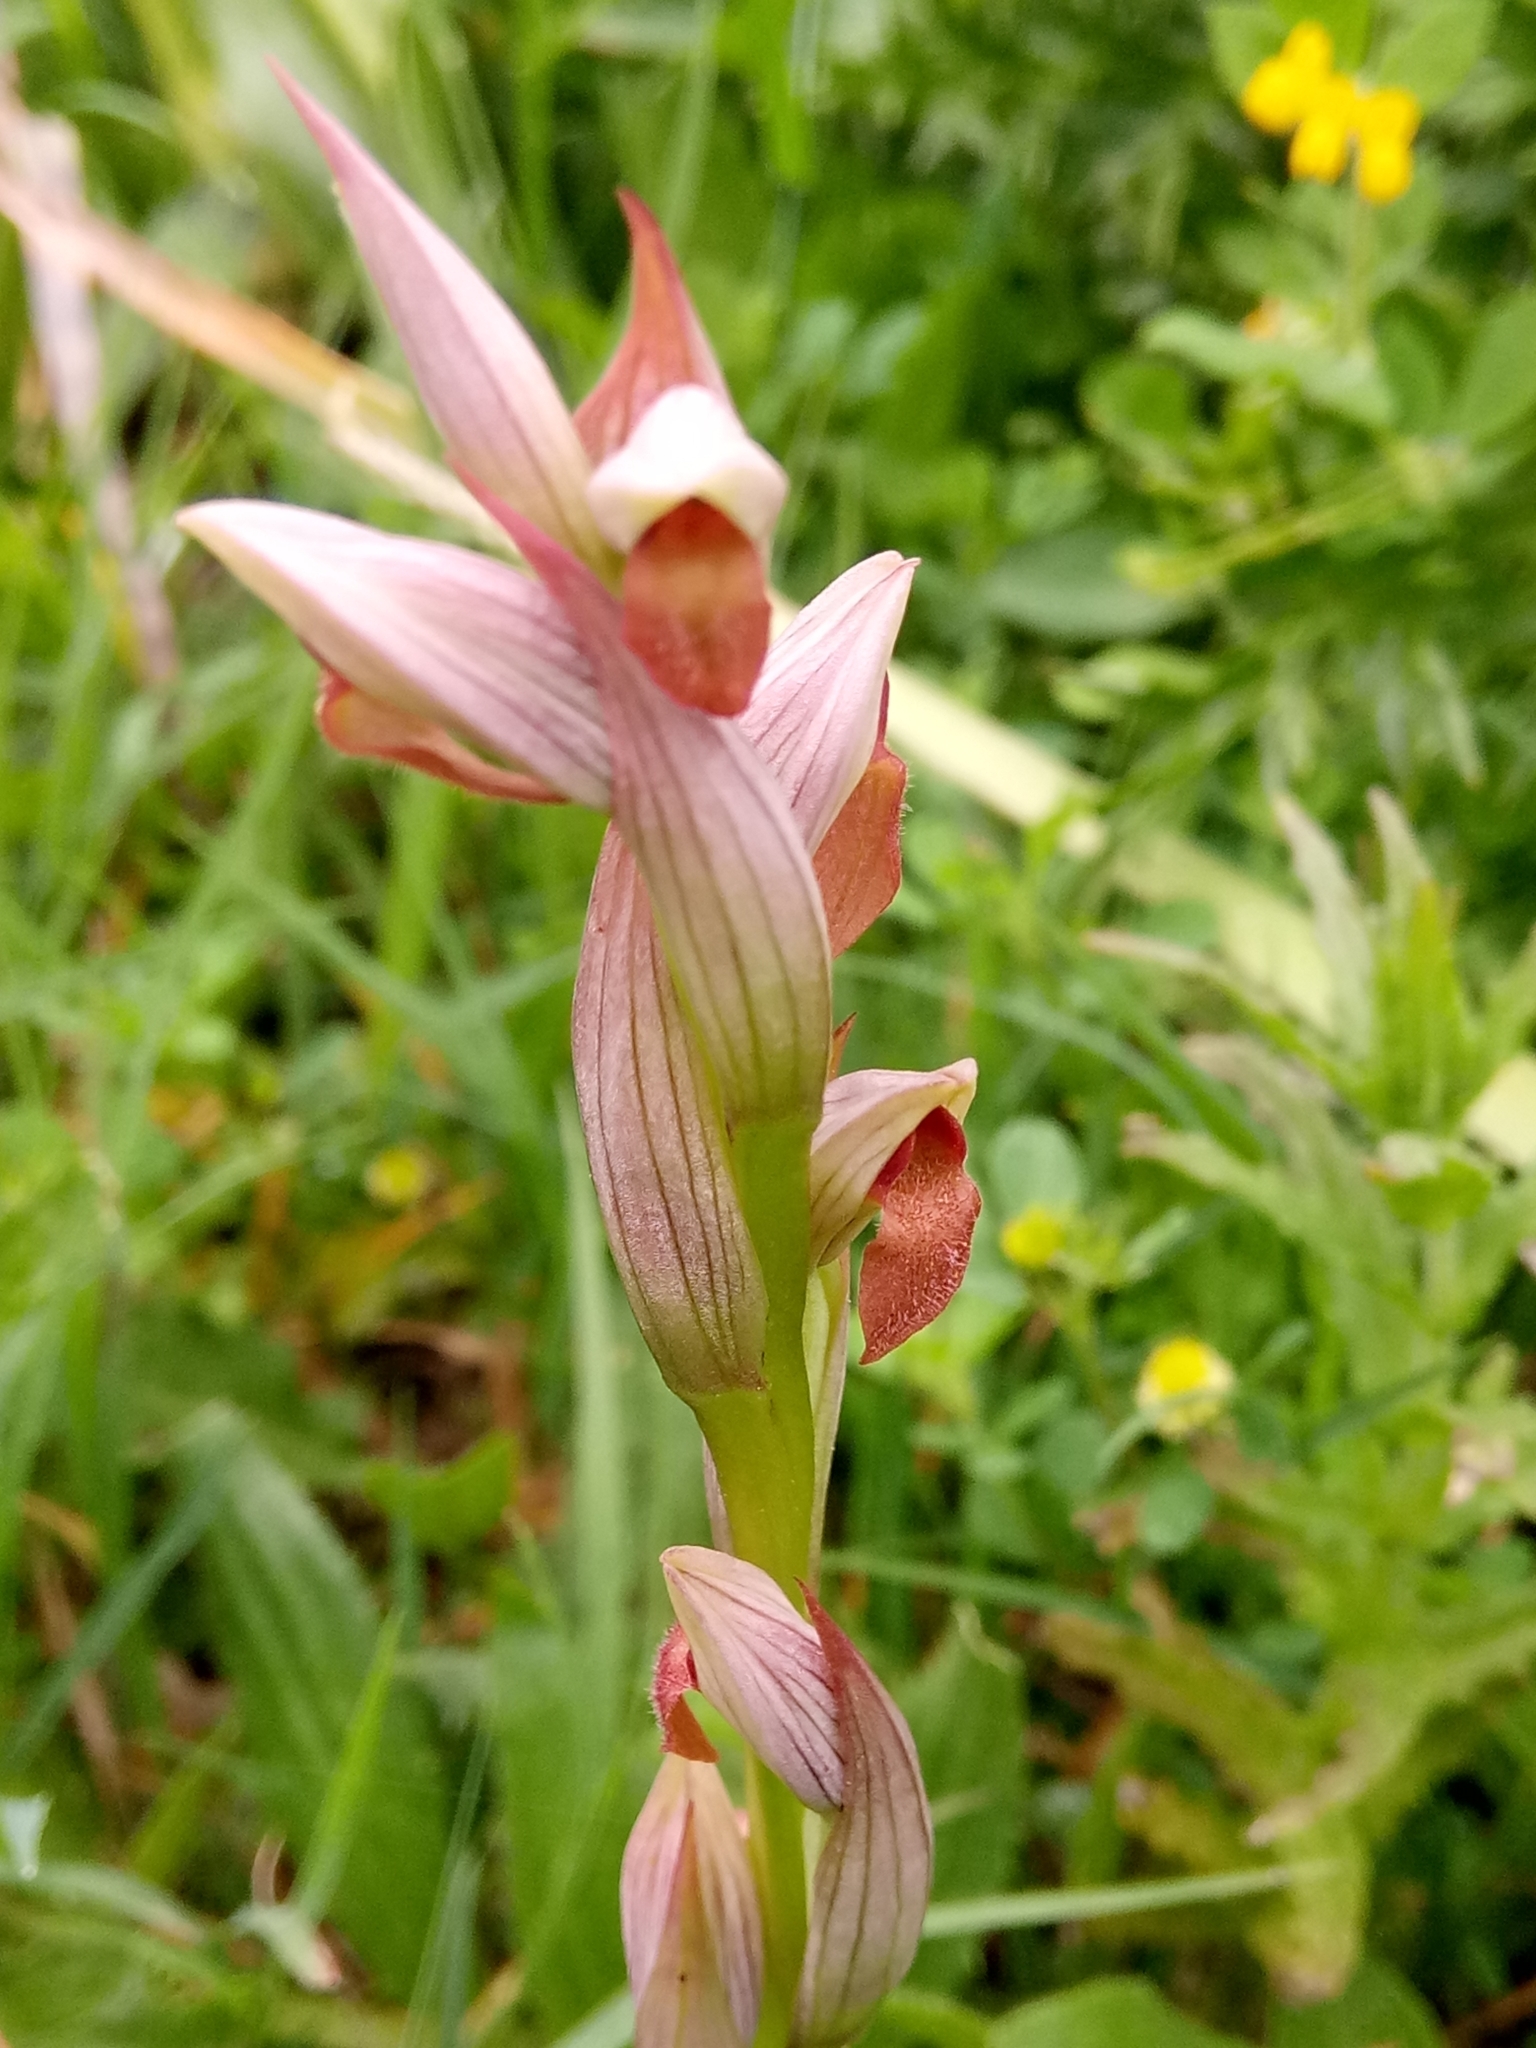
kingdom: Plantae
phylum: Tracheophyta
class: Liliopsida
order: Asparagales
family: Orchidaceae
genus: Serapias
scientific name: Serapias parviflora
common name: Small-flowered tongue-orchid
